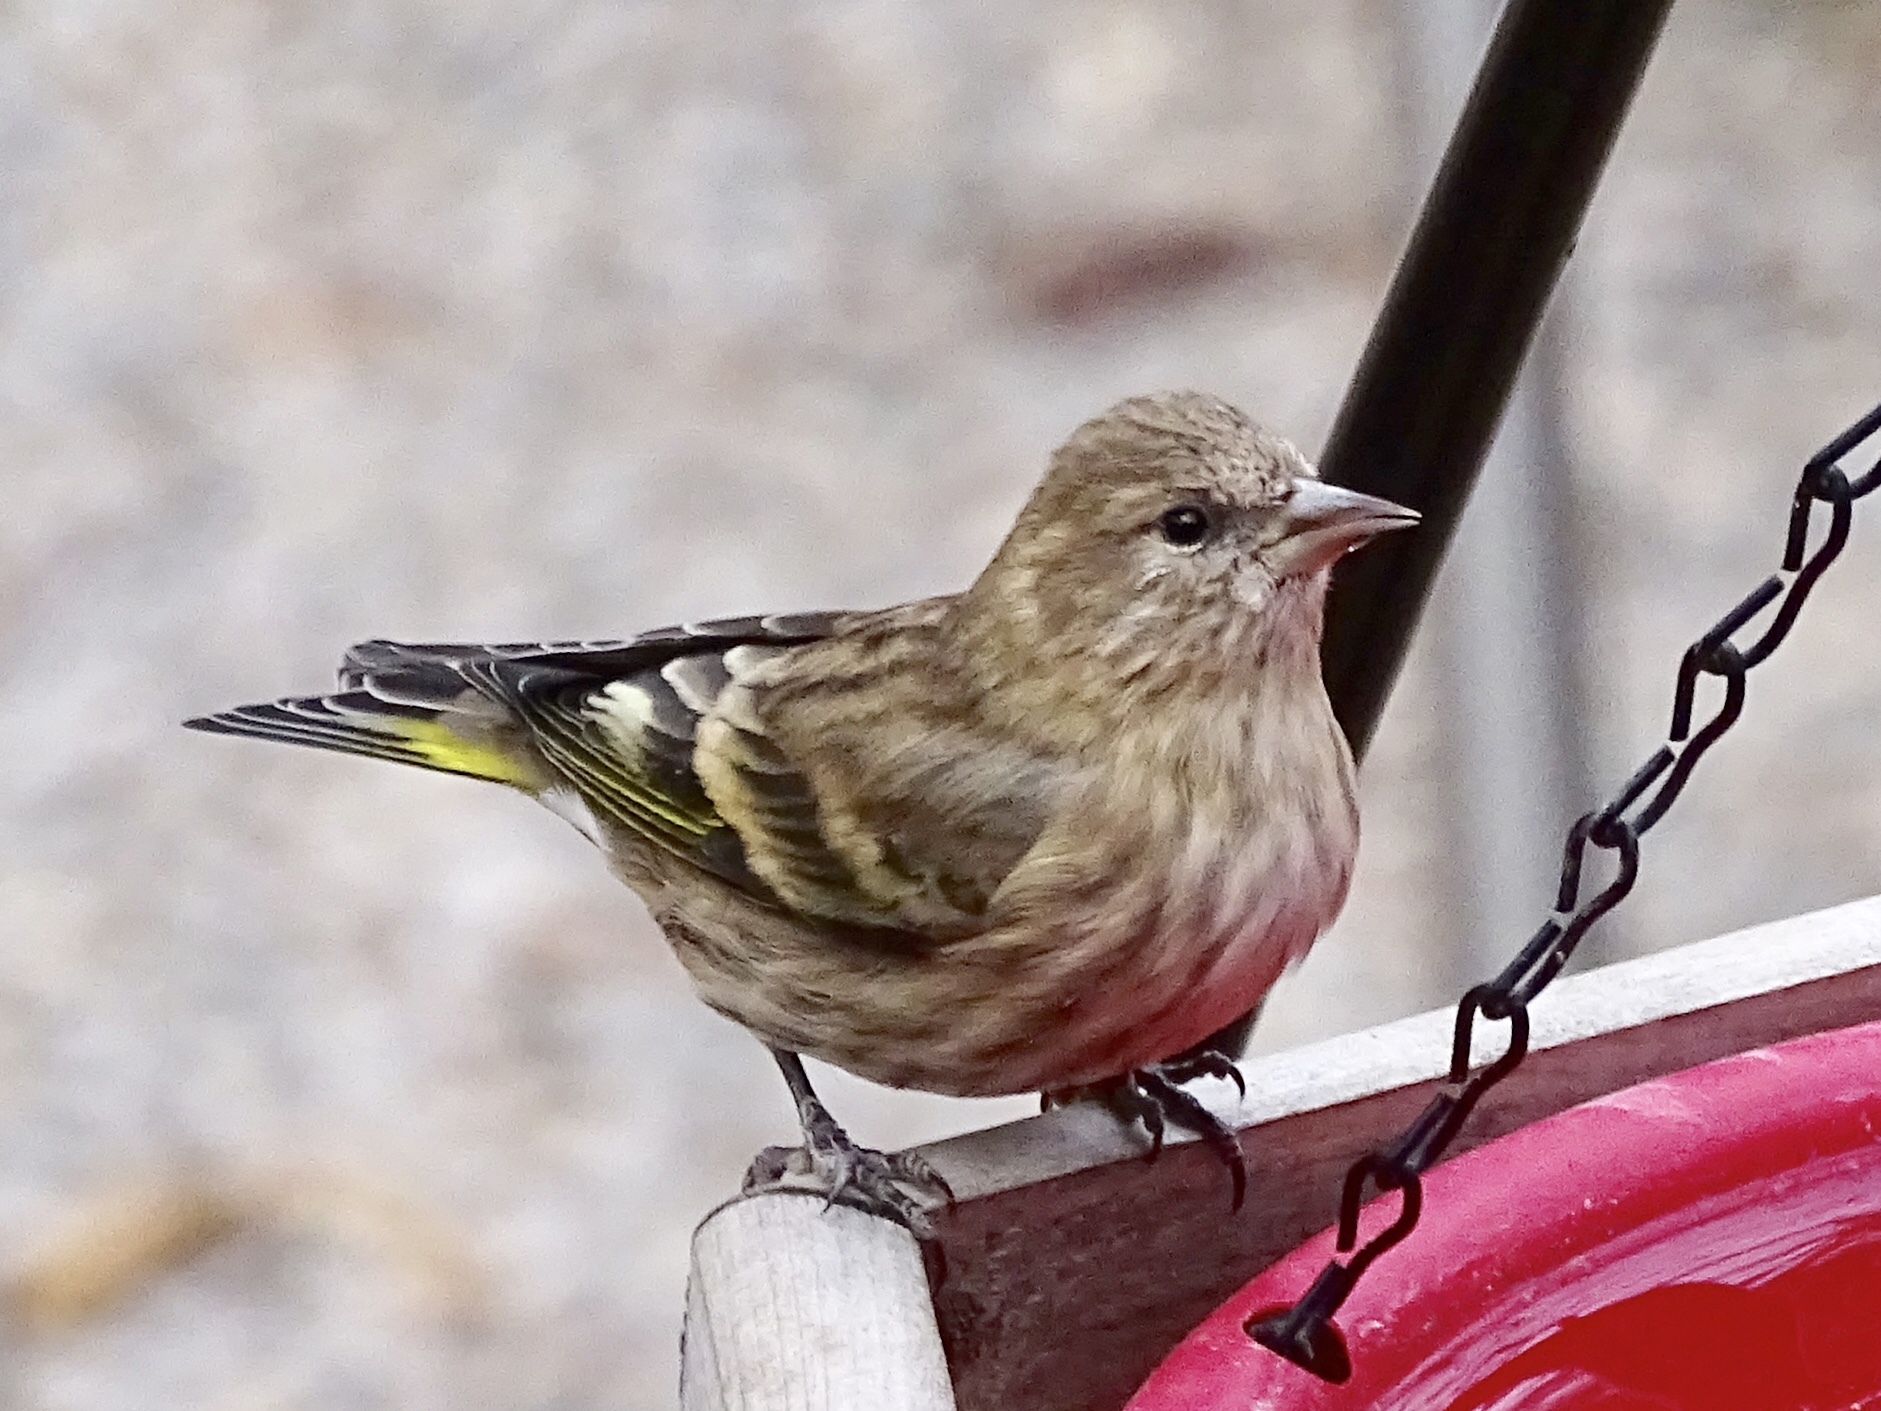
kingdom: Animalia
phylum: Chordata
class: Aves
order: Passeriformes
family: Fringillidae
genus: Spinus
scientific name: Spinus pinus
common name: Pine siskin
